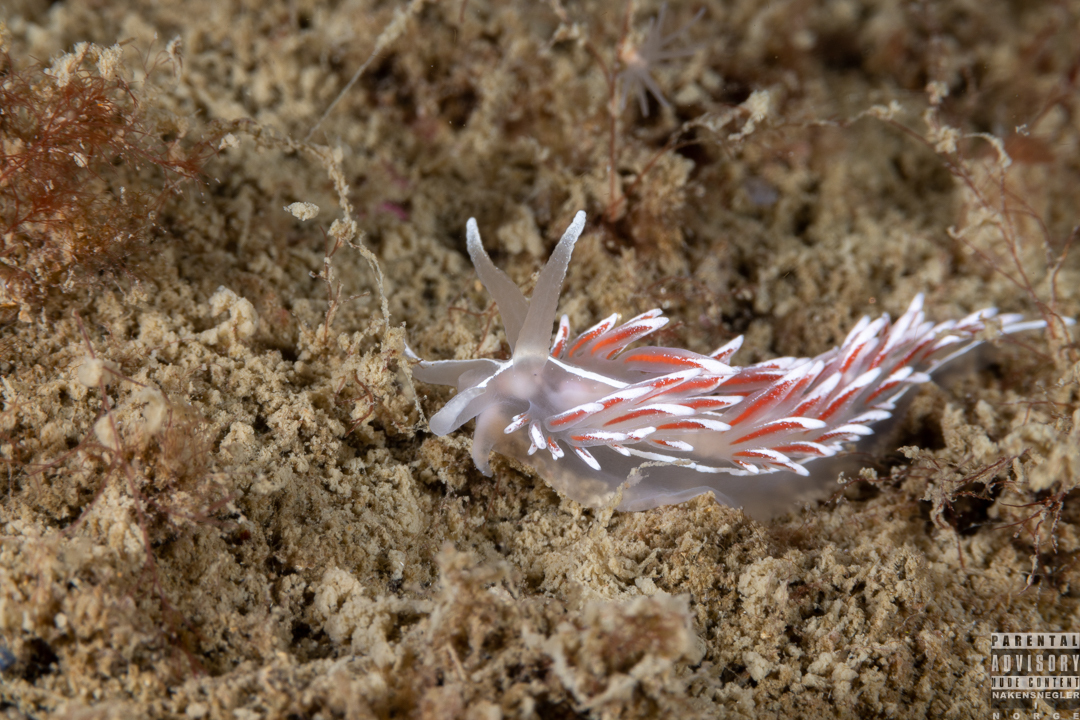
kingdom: Animalia
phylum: Mollusca
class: Gastropoda
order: Nudibranchia
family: Coryphellidae
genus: Coryphella
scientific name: Coryphella lineata
